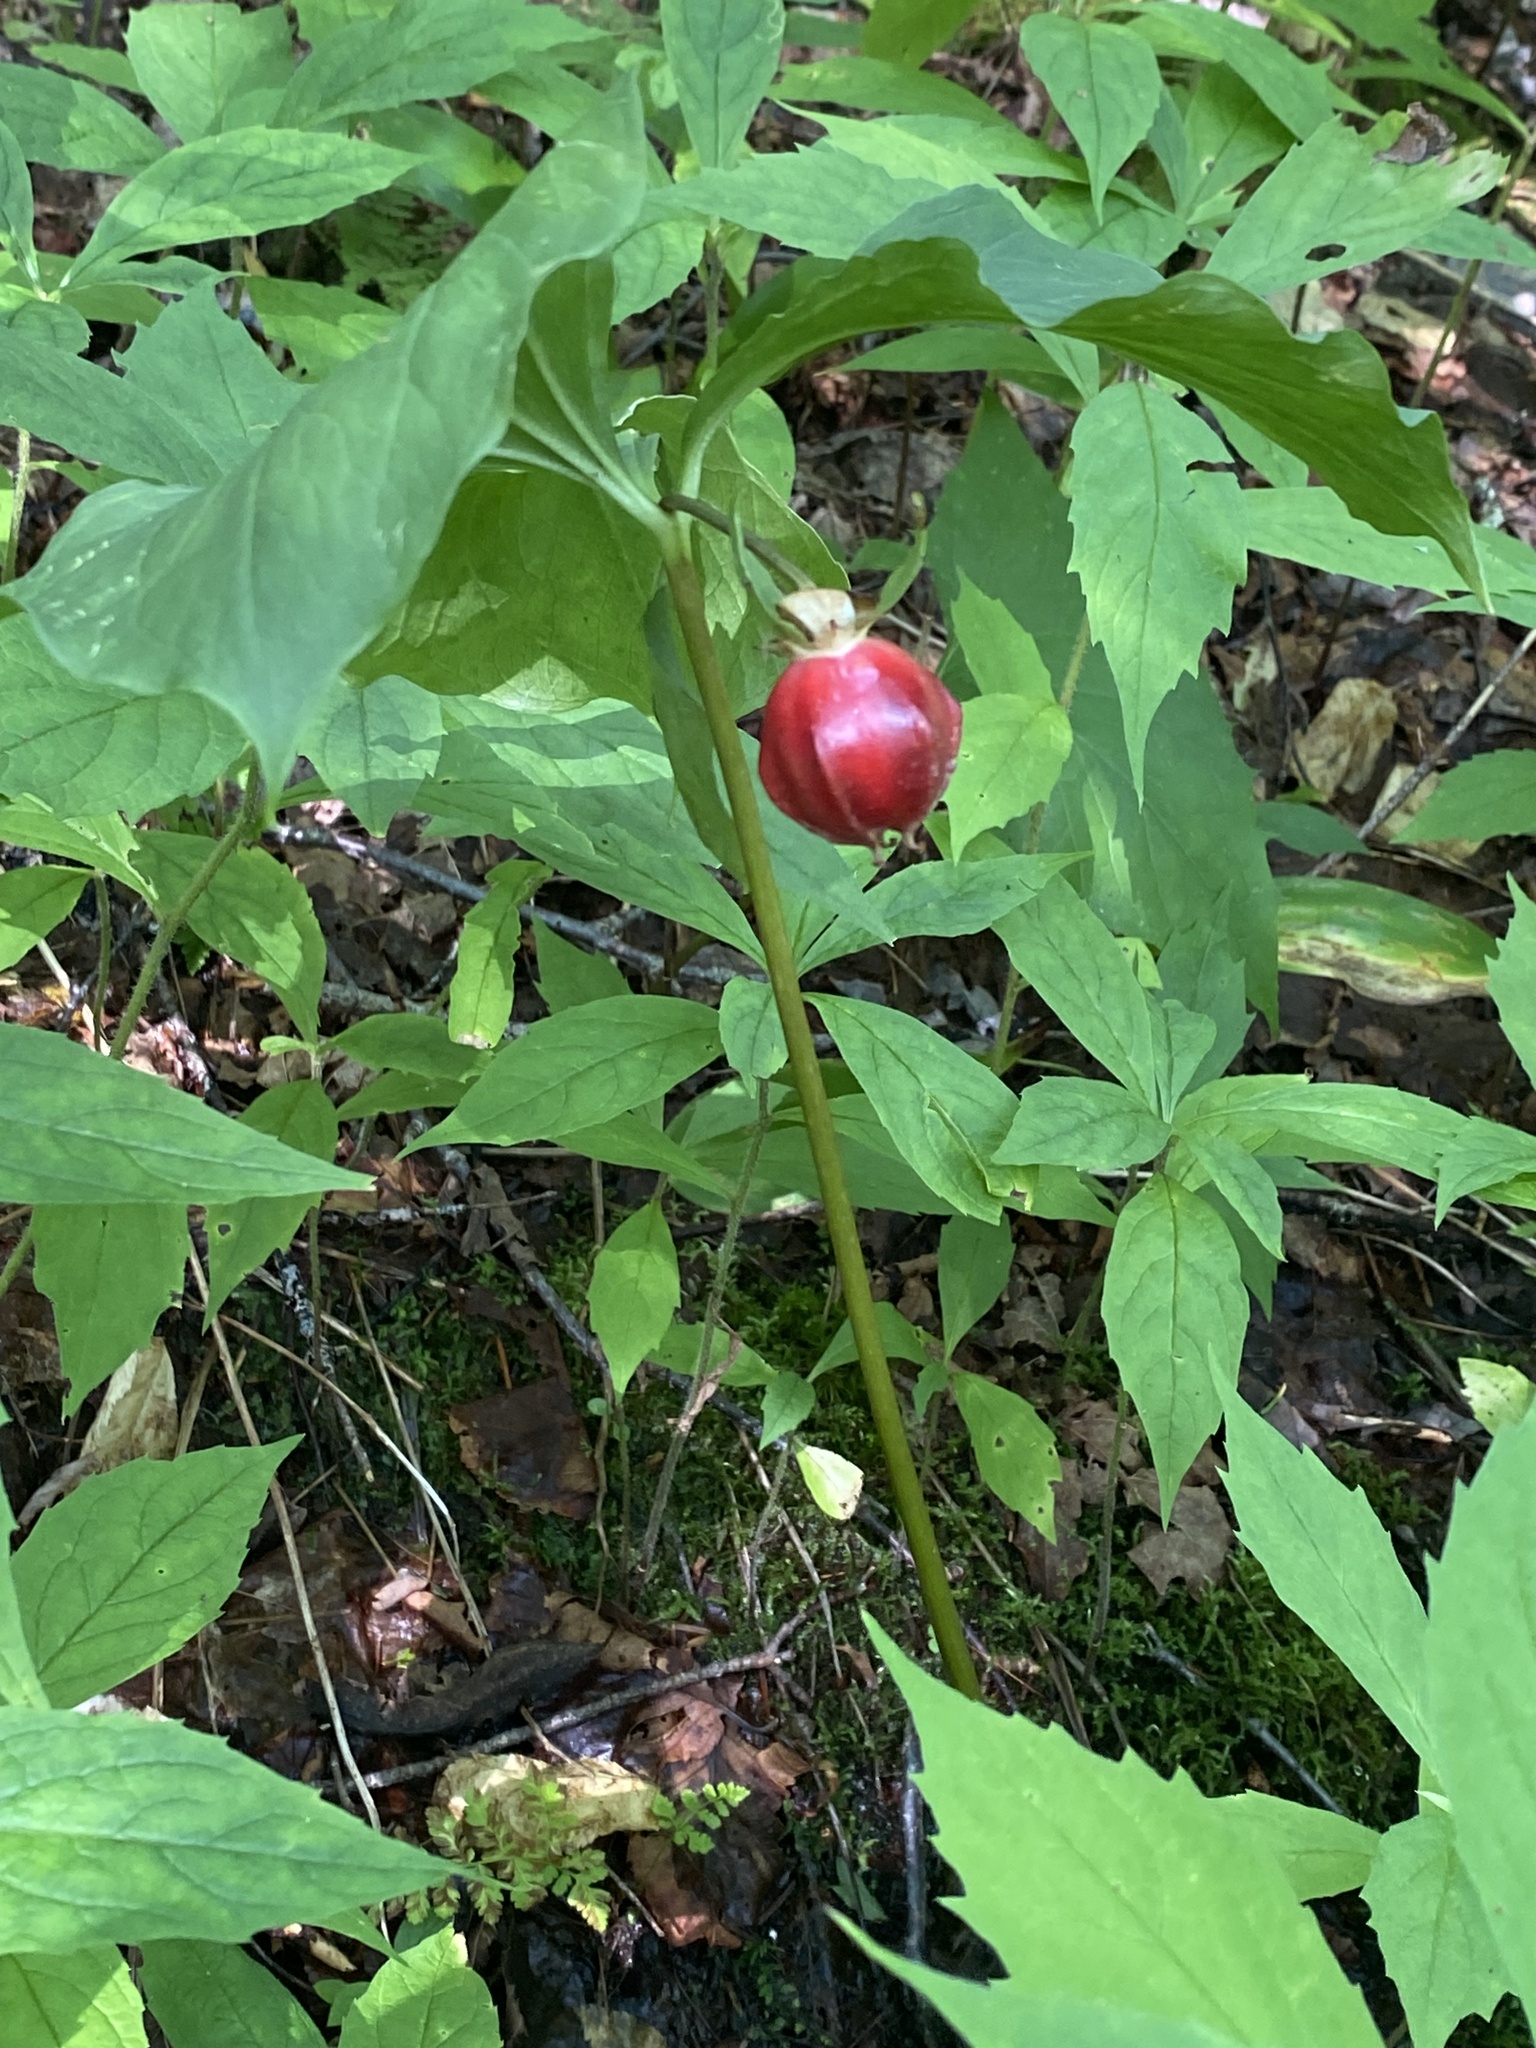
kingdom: Plantae
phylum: Tracheophyta
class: Liliopsida
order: Liliales
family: Melanthiaceae
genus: Trillium
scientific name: Trillium cernuum
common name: Nodding trillium
